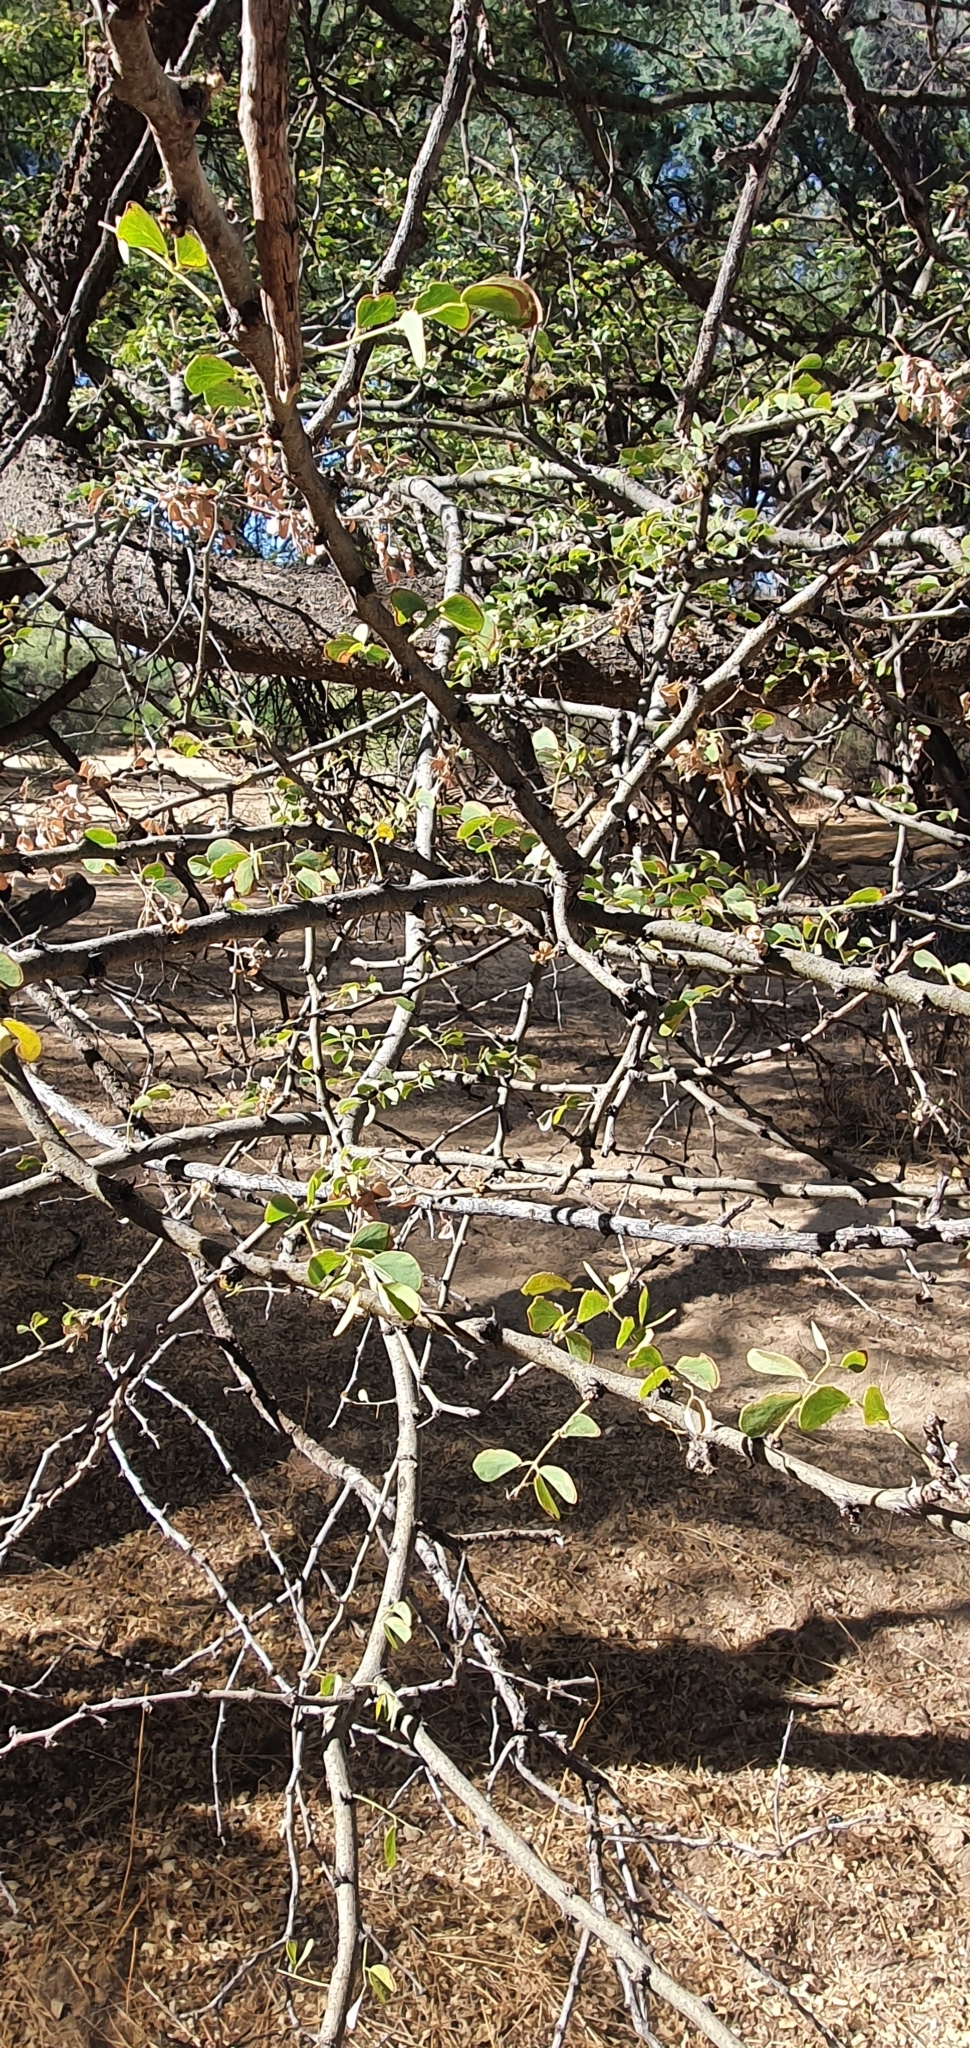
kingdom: Plantae
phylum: Tracheophyta
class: Magnoliopsida
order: Fabales
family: Fabaceae
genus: Senegalia
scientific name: Senegalia mellifera
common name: Hookthorn
